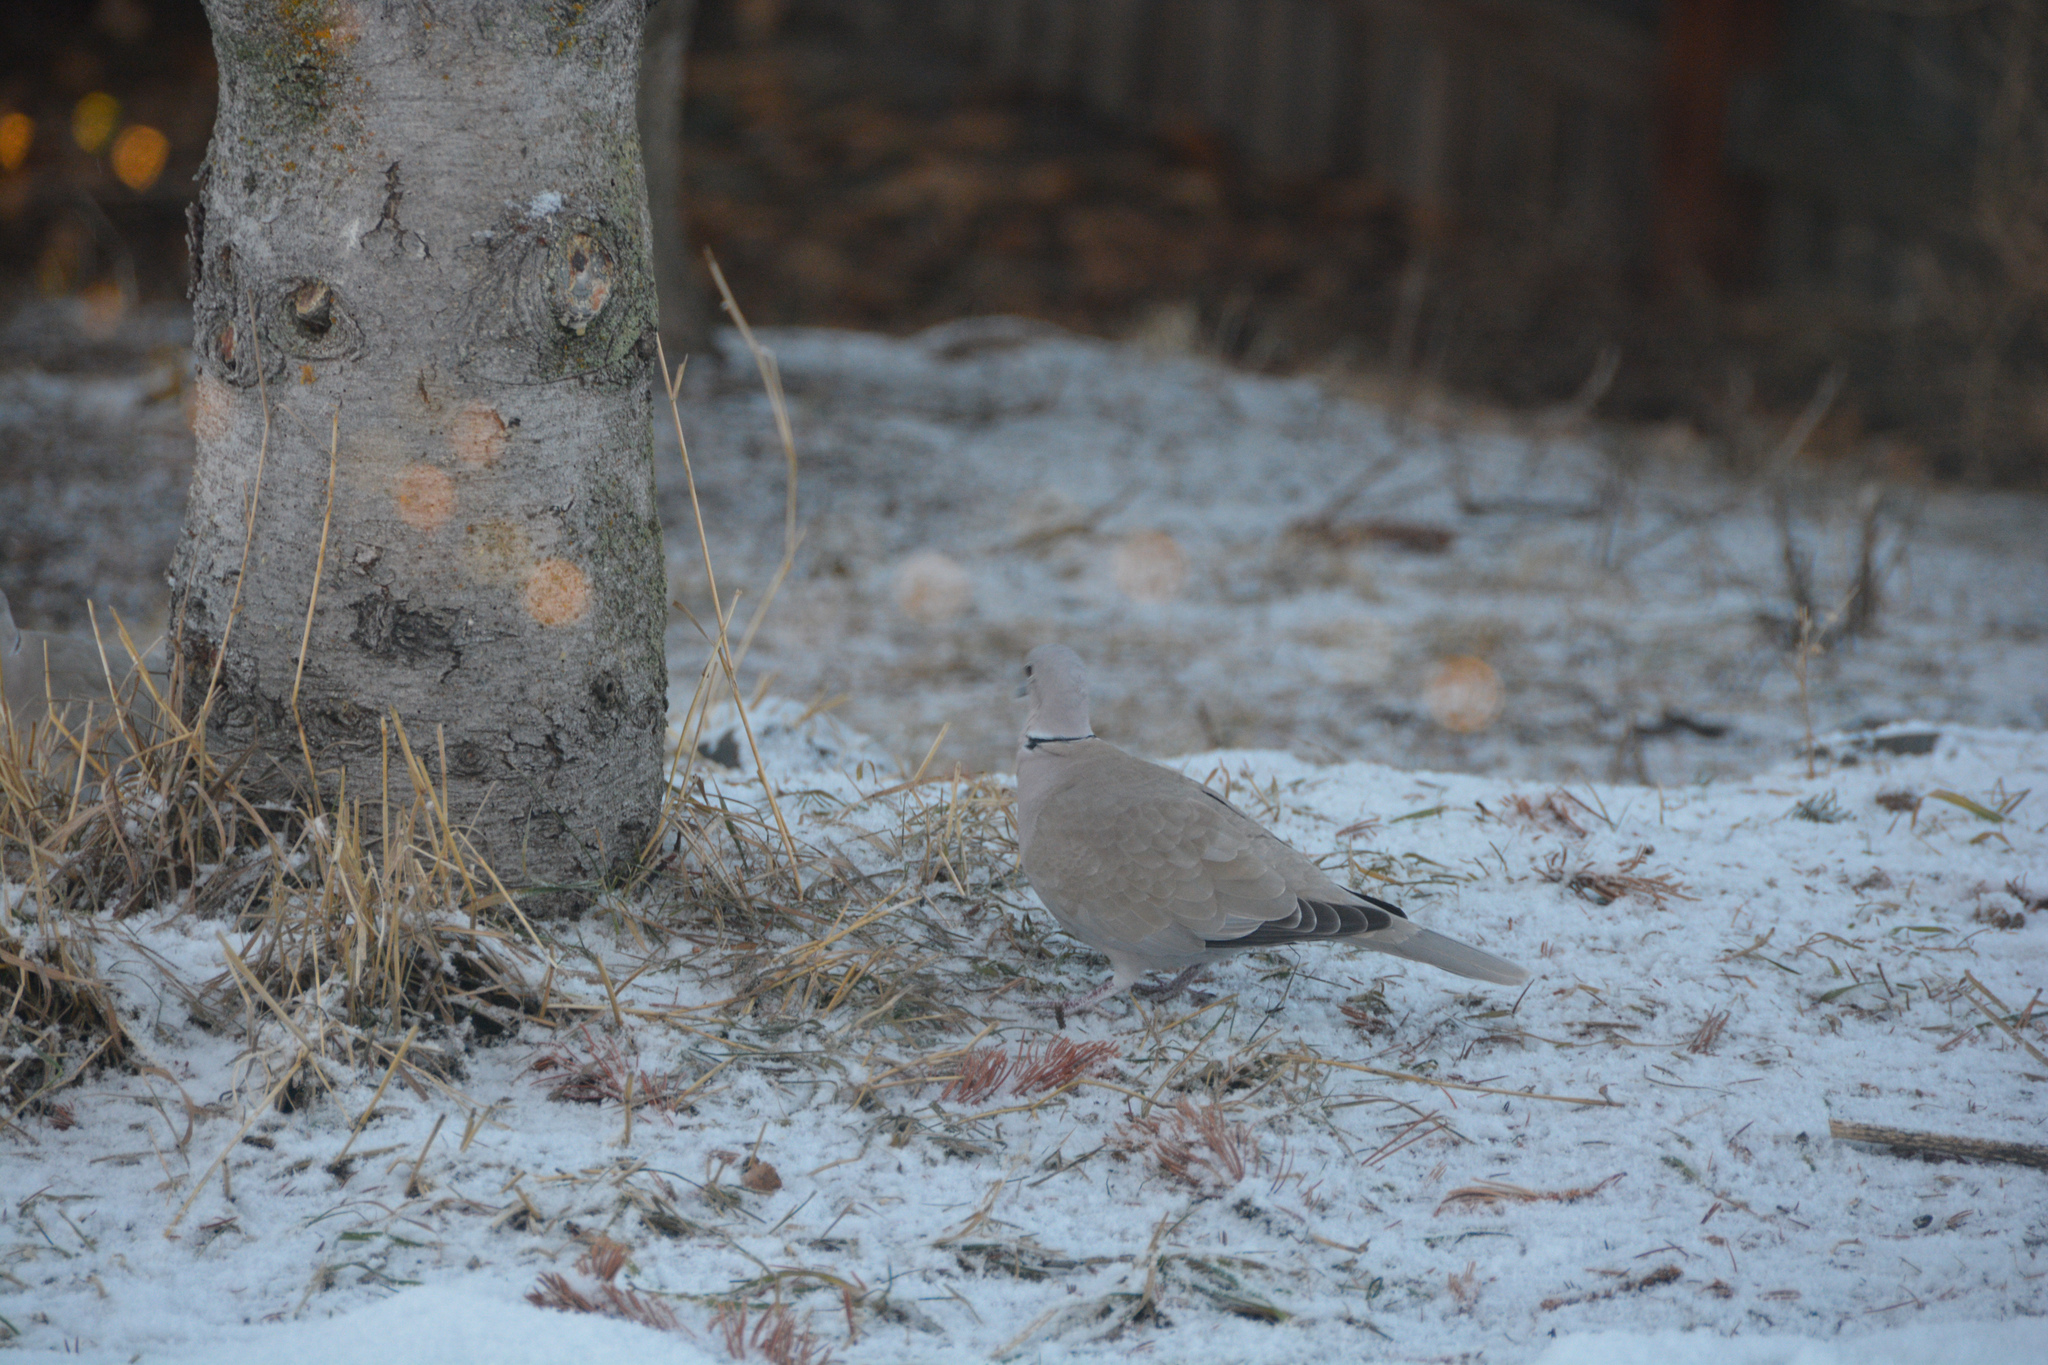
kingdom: Animalia
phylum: Chordata
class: Aves
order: Columbiformes
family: Columbidae
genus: Streptopelia
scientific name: Streptopelia decaocto
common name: Eurasian collared dove
